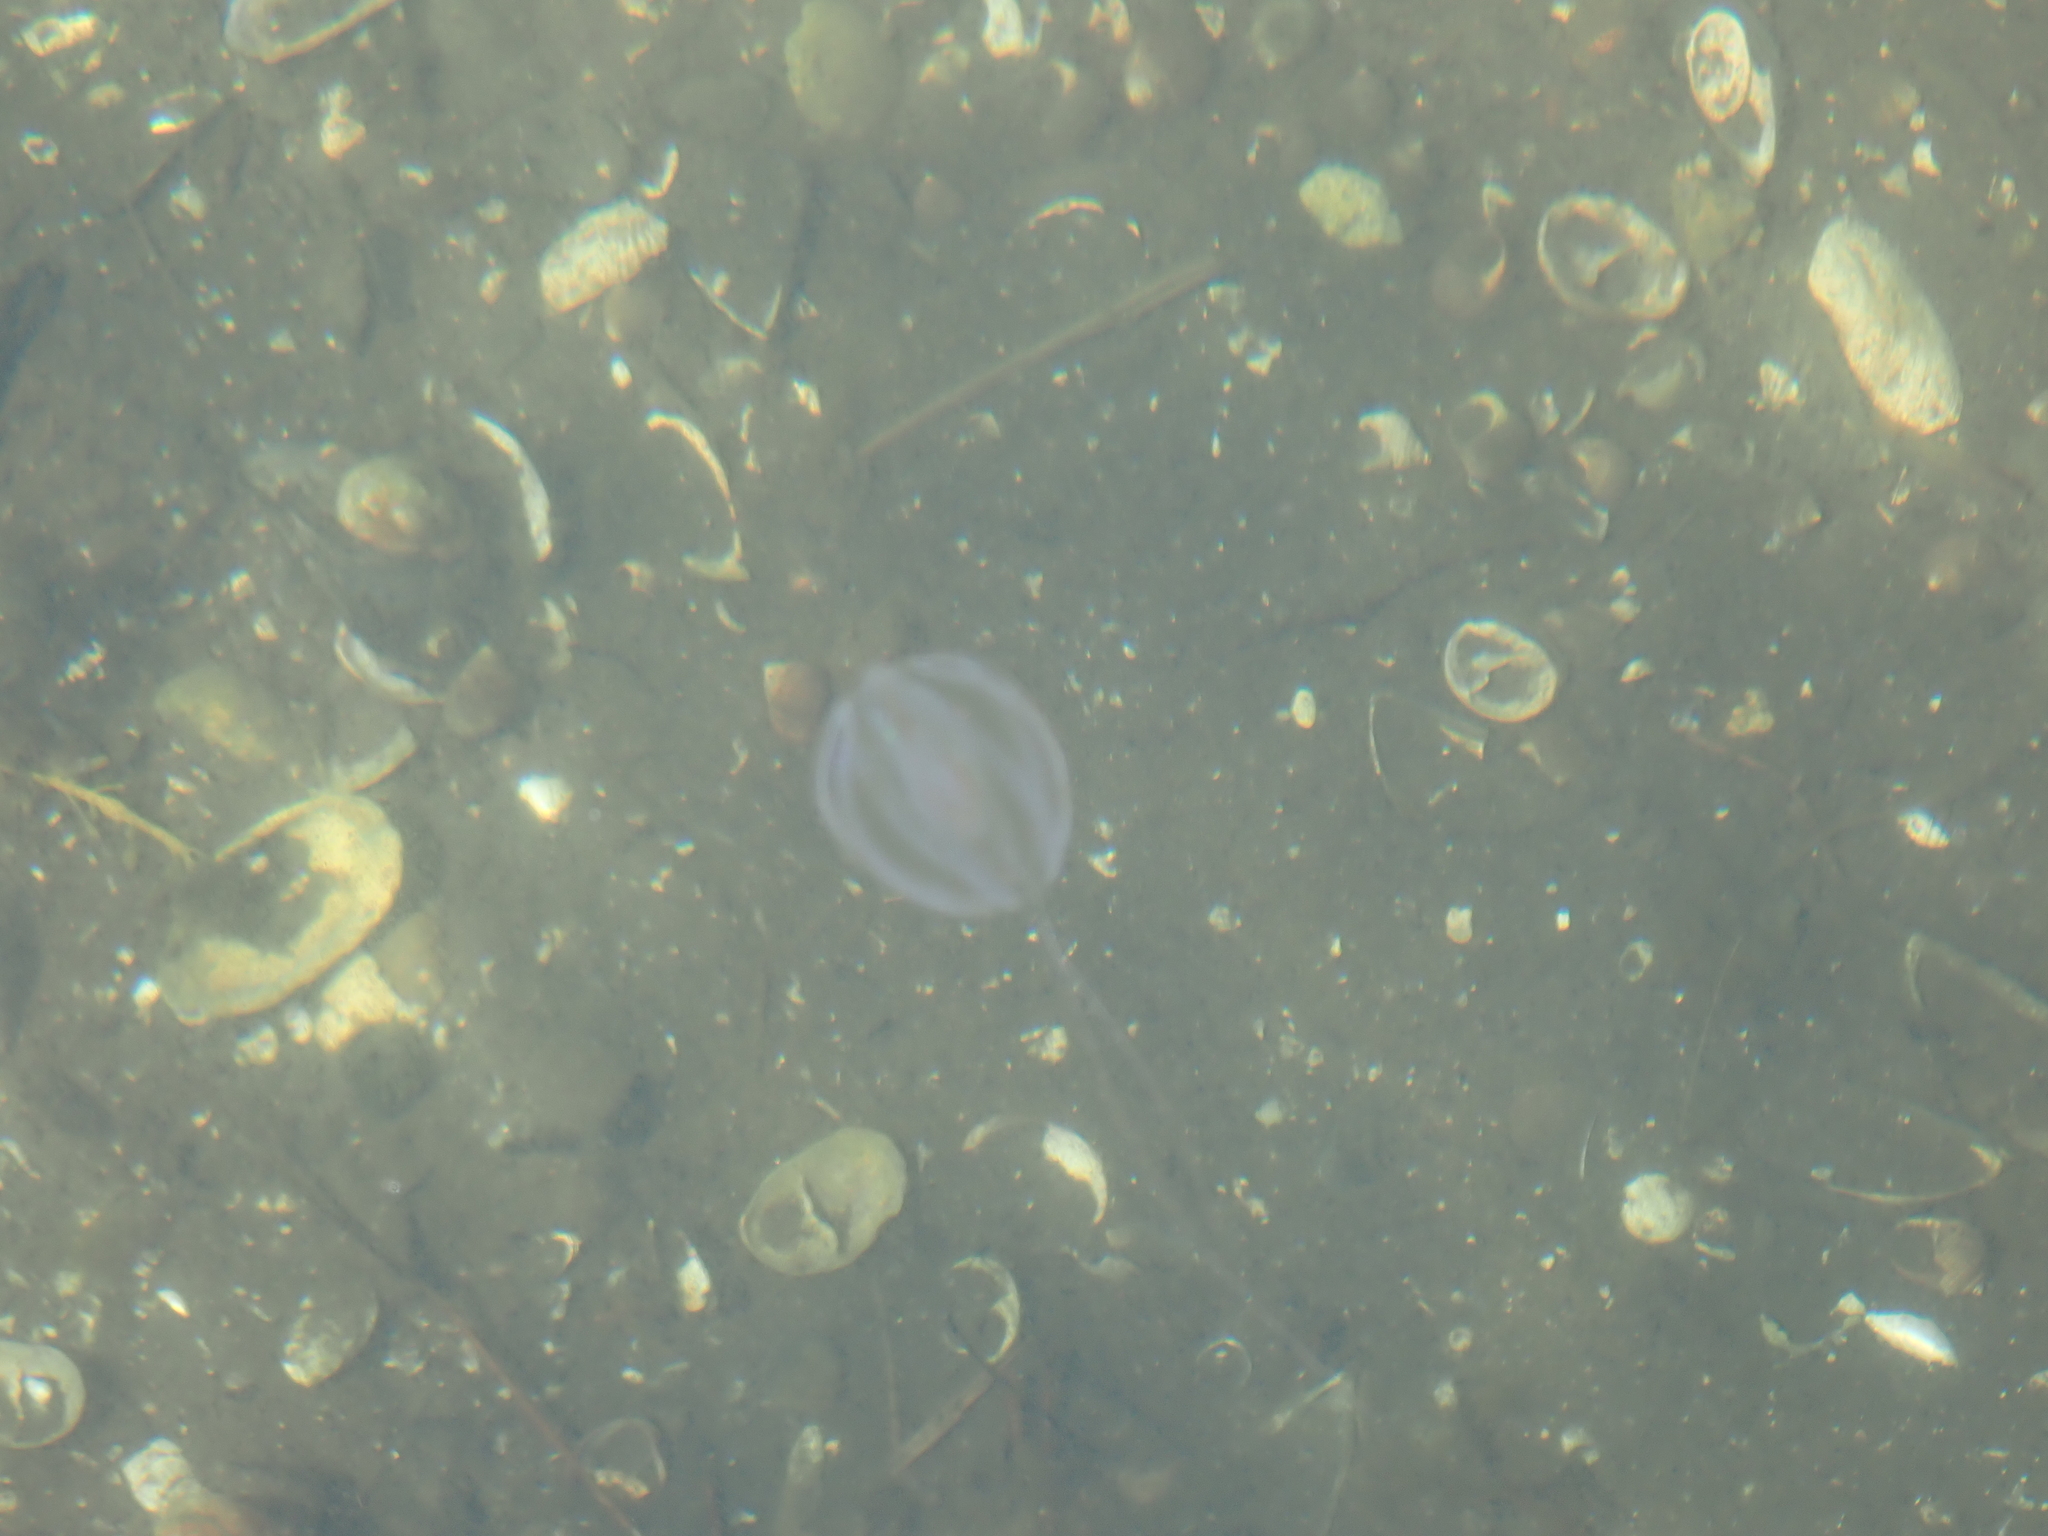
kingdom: Animalia
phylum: Ctenophora
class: Tentaculata
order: Cydippida
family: Pleurobrachiidae
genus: Pleurobrachia
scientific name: Pleurobrachia pileus
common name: Sea gooseberry
